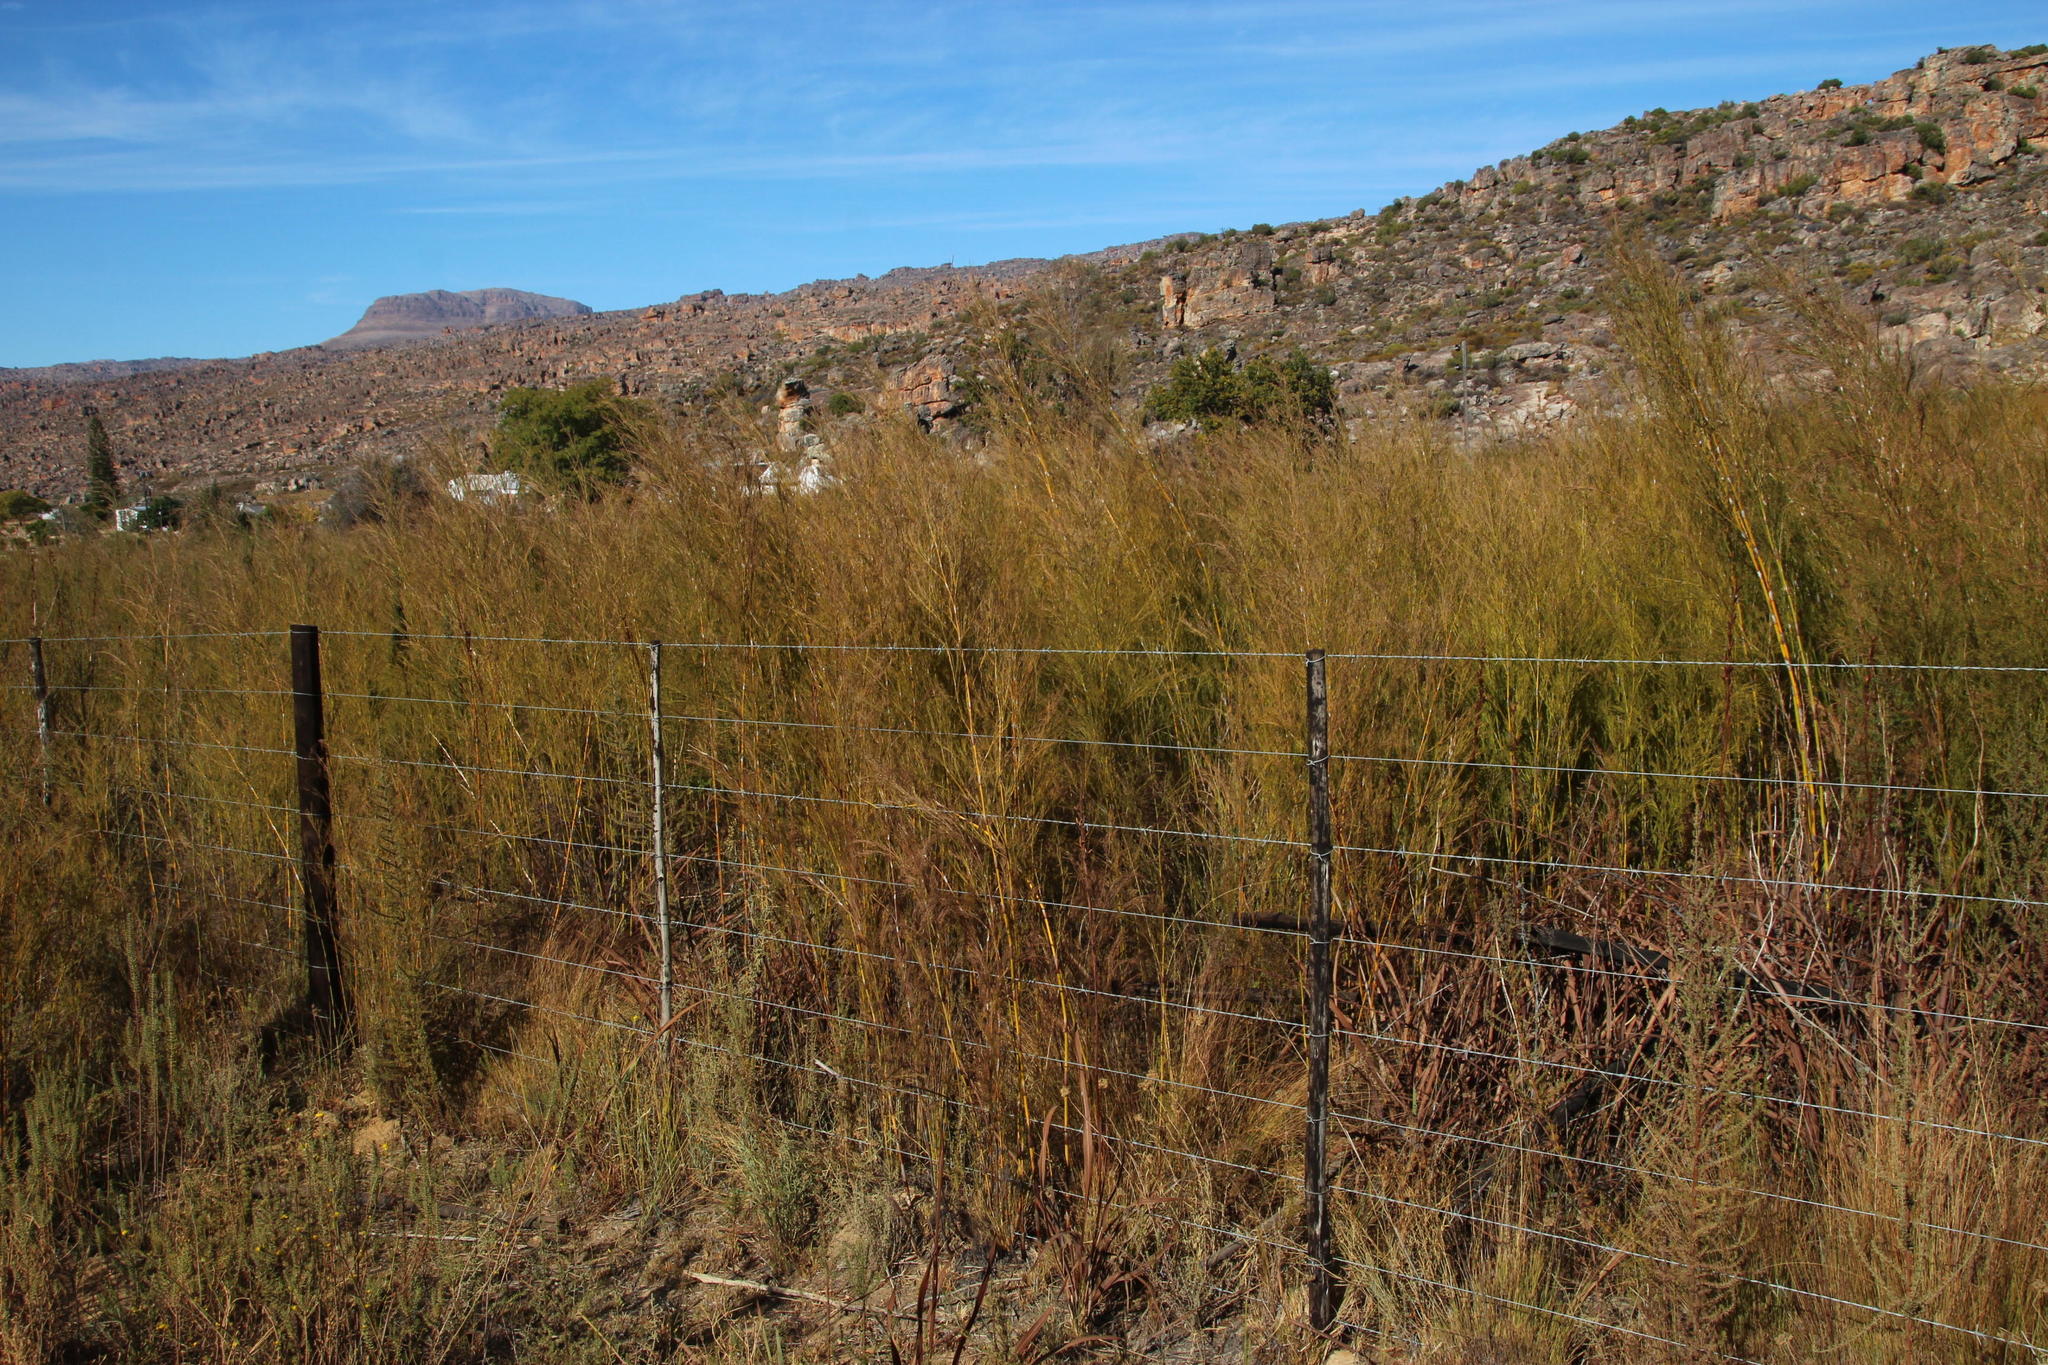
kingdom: Plantae
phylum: Tracheophyta
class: Liliopsida
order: Poales
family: Restionaceae
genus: Restio
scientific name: Restio paniculatus
